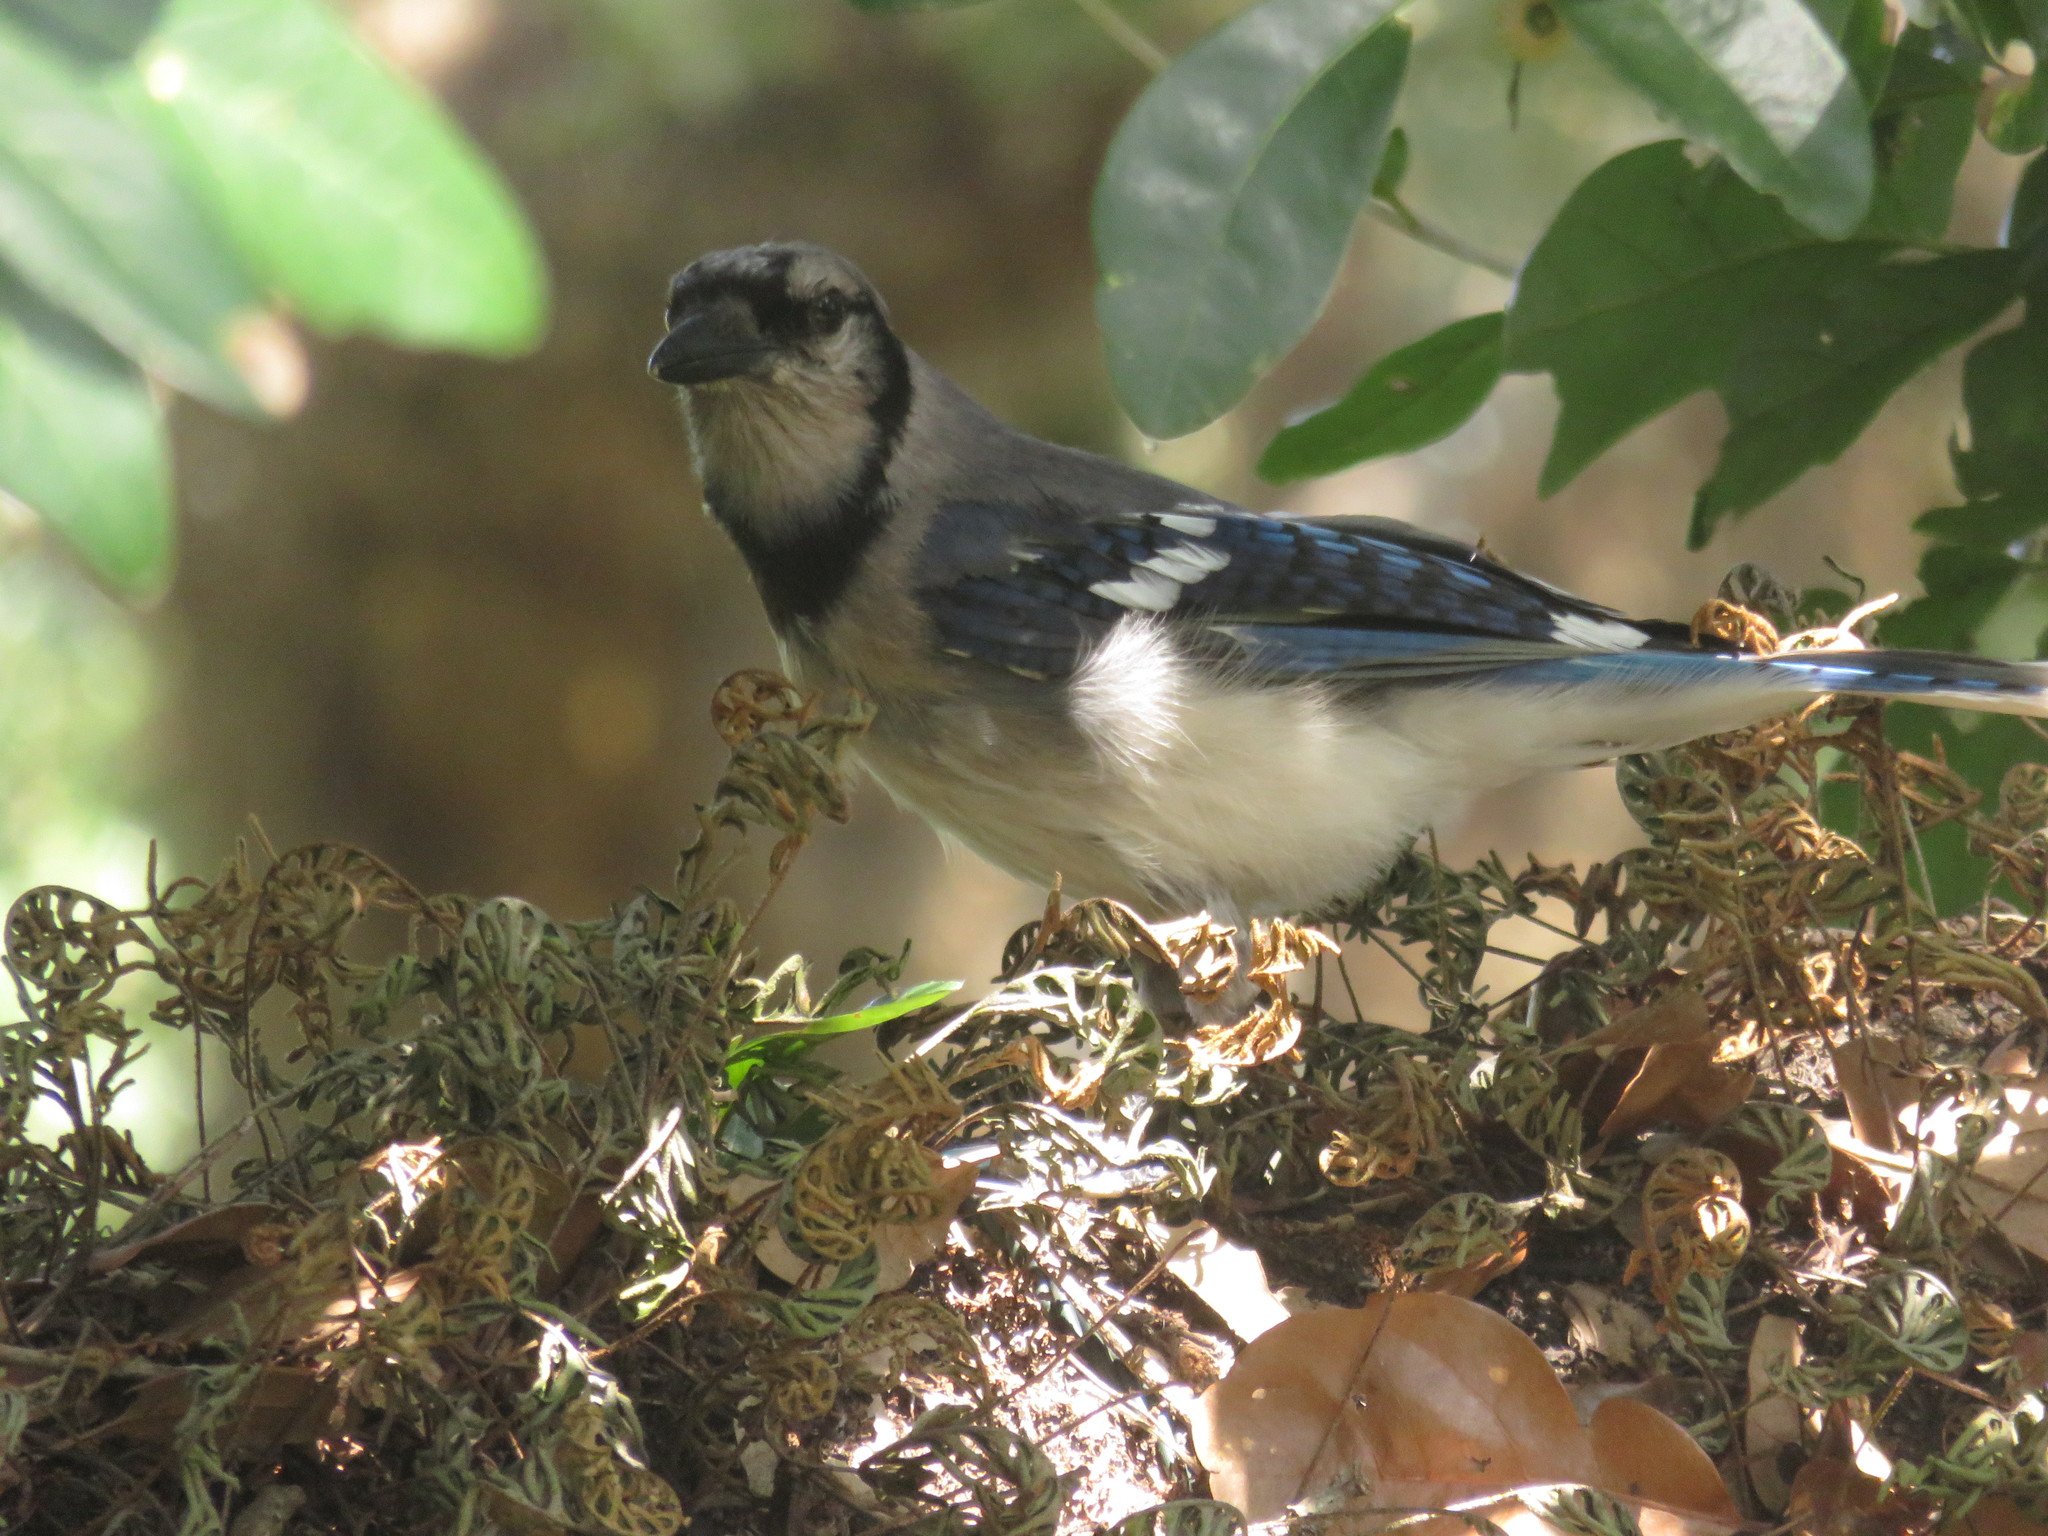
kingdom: Animalia
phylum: Chordata
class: Aves
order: Passeriformes
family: Corvidae
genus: Cyanocitta
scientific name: Cyanocitta cristata
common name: Blue jay
